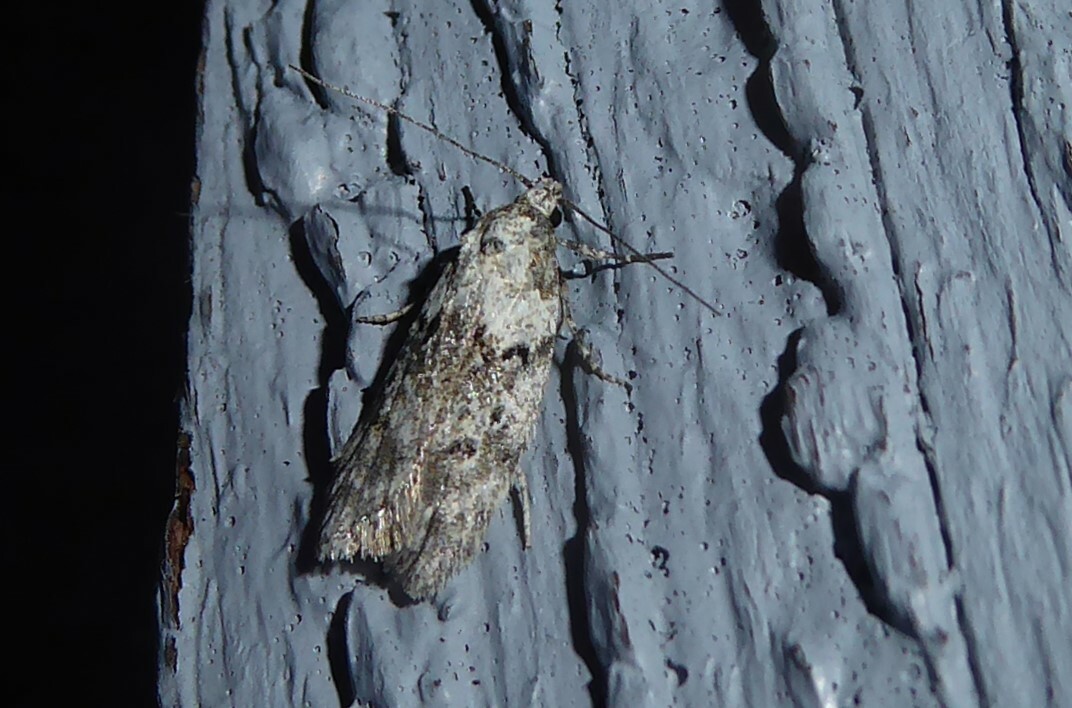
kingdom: Animalia
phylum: Arthropoda
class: Insecta
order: Lepidoptera
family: Oecophoridae
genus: Izatha
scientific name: Izatha convulsella
